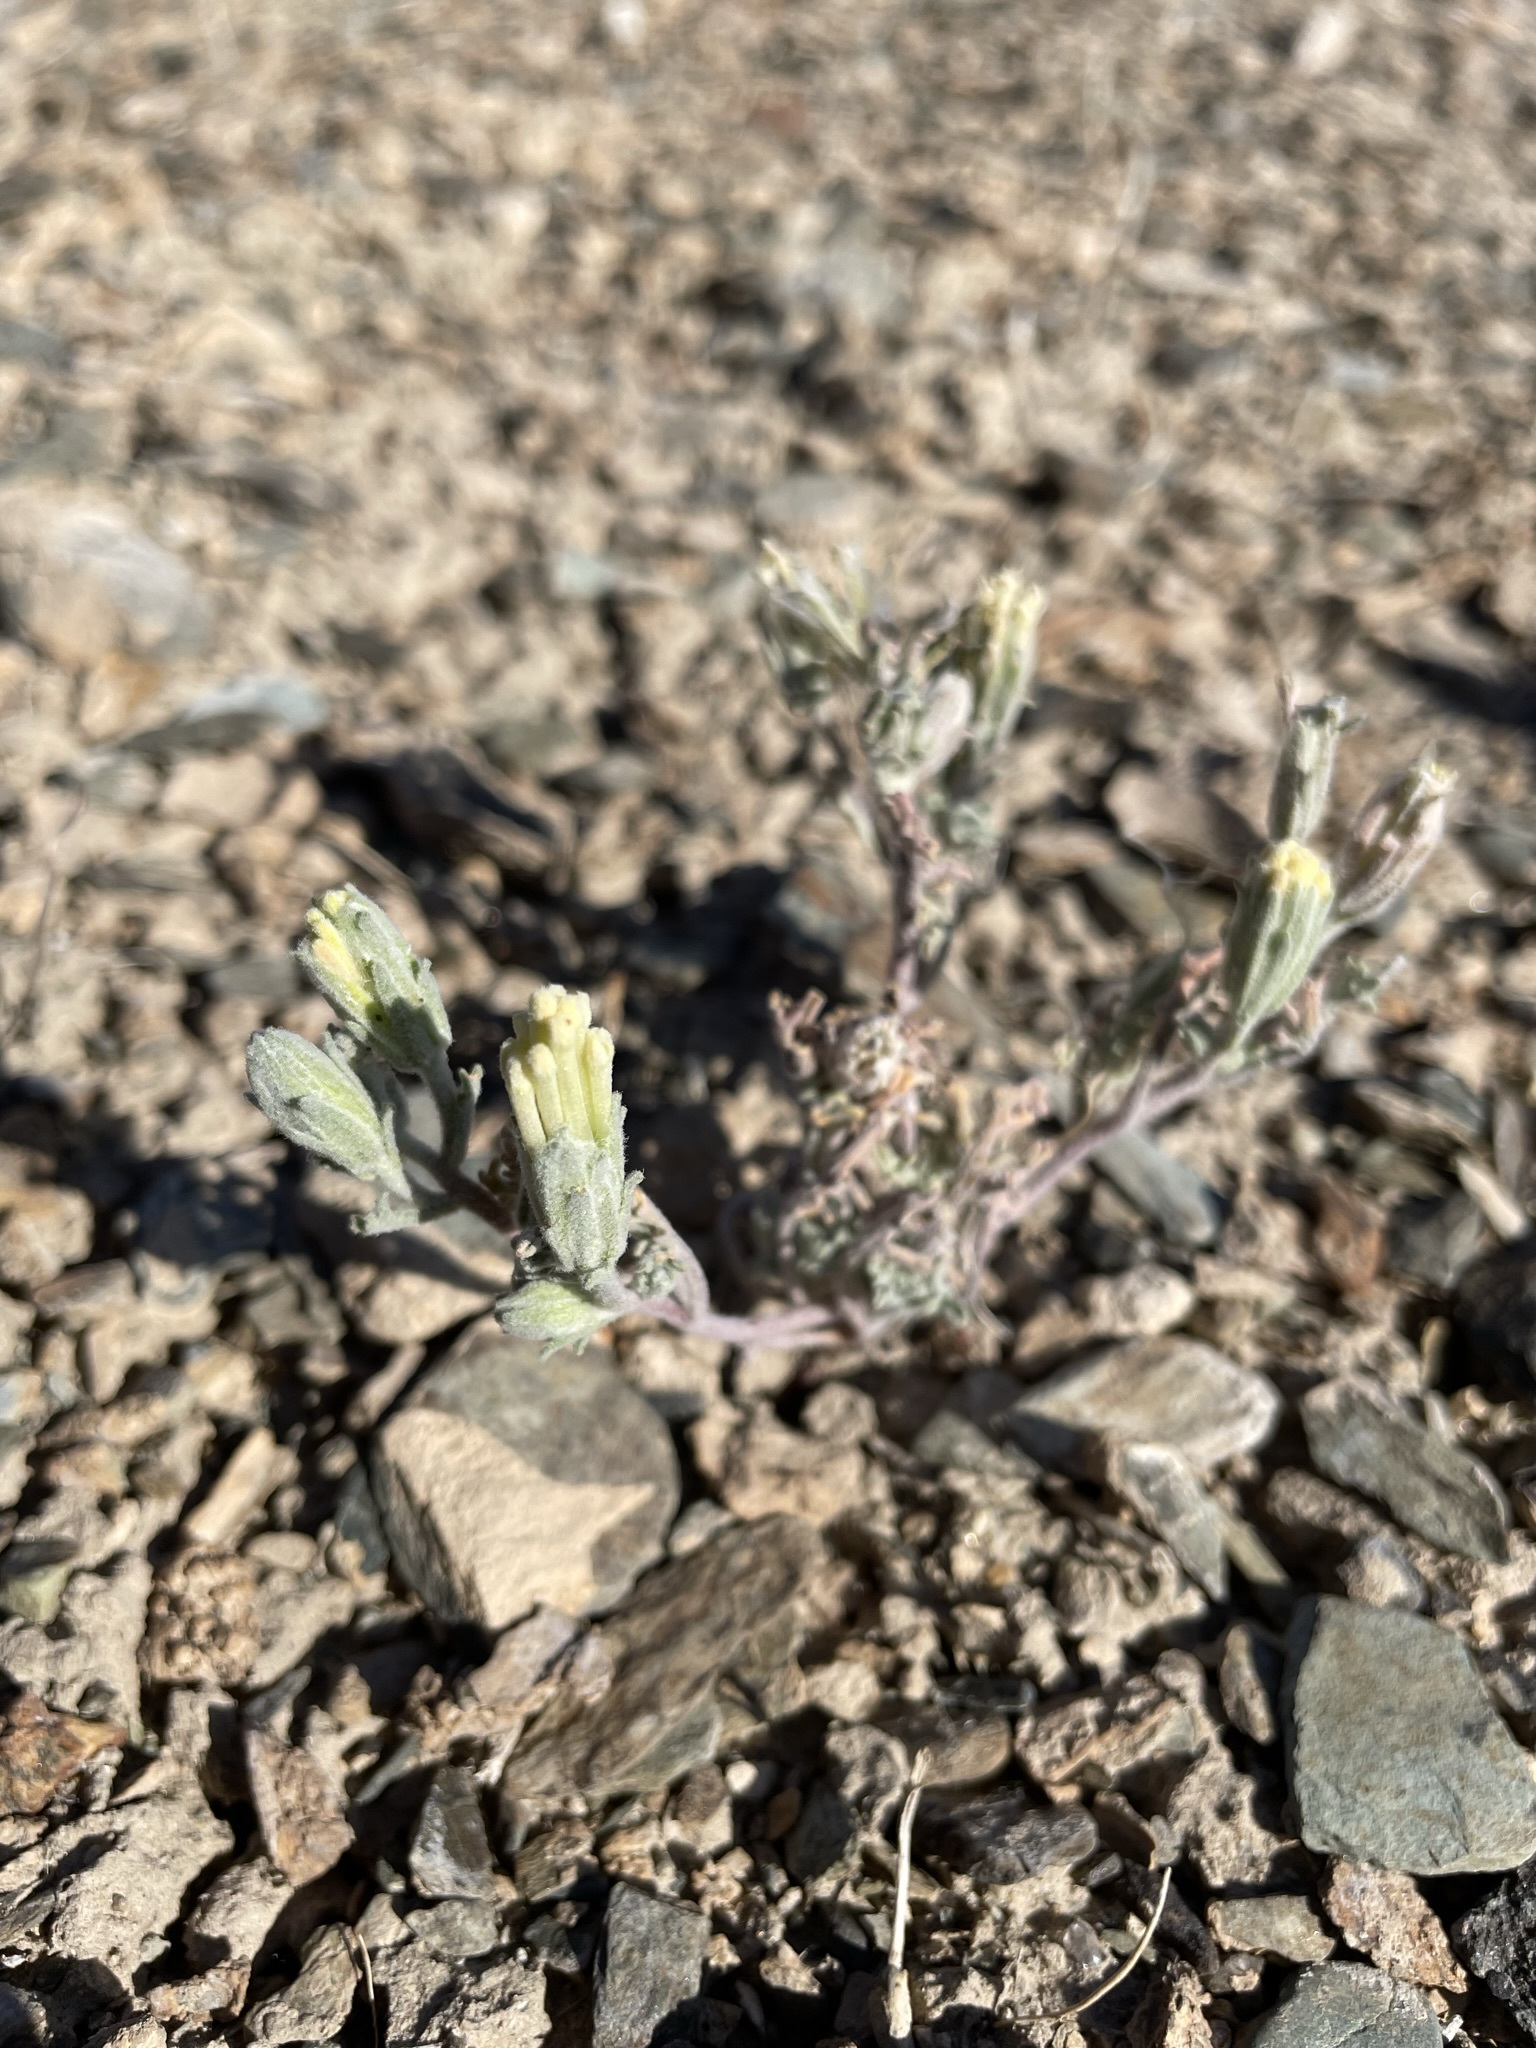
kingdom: Plantae
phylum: Tracheophyta
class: Magnoliopsida
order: Asterales
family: Asteraceae
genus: Chaenactis
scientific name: Chaenactis macrantha
